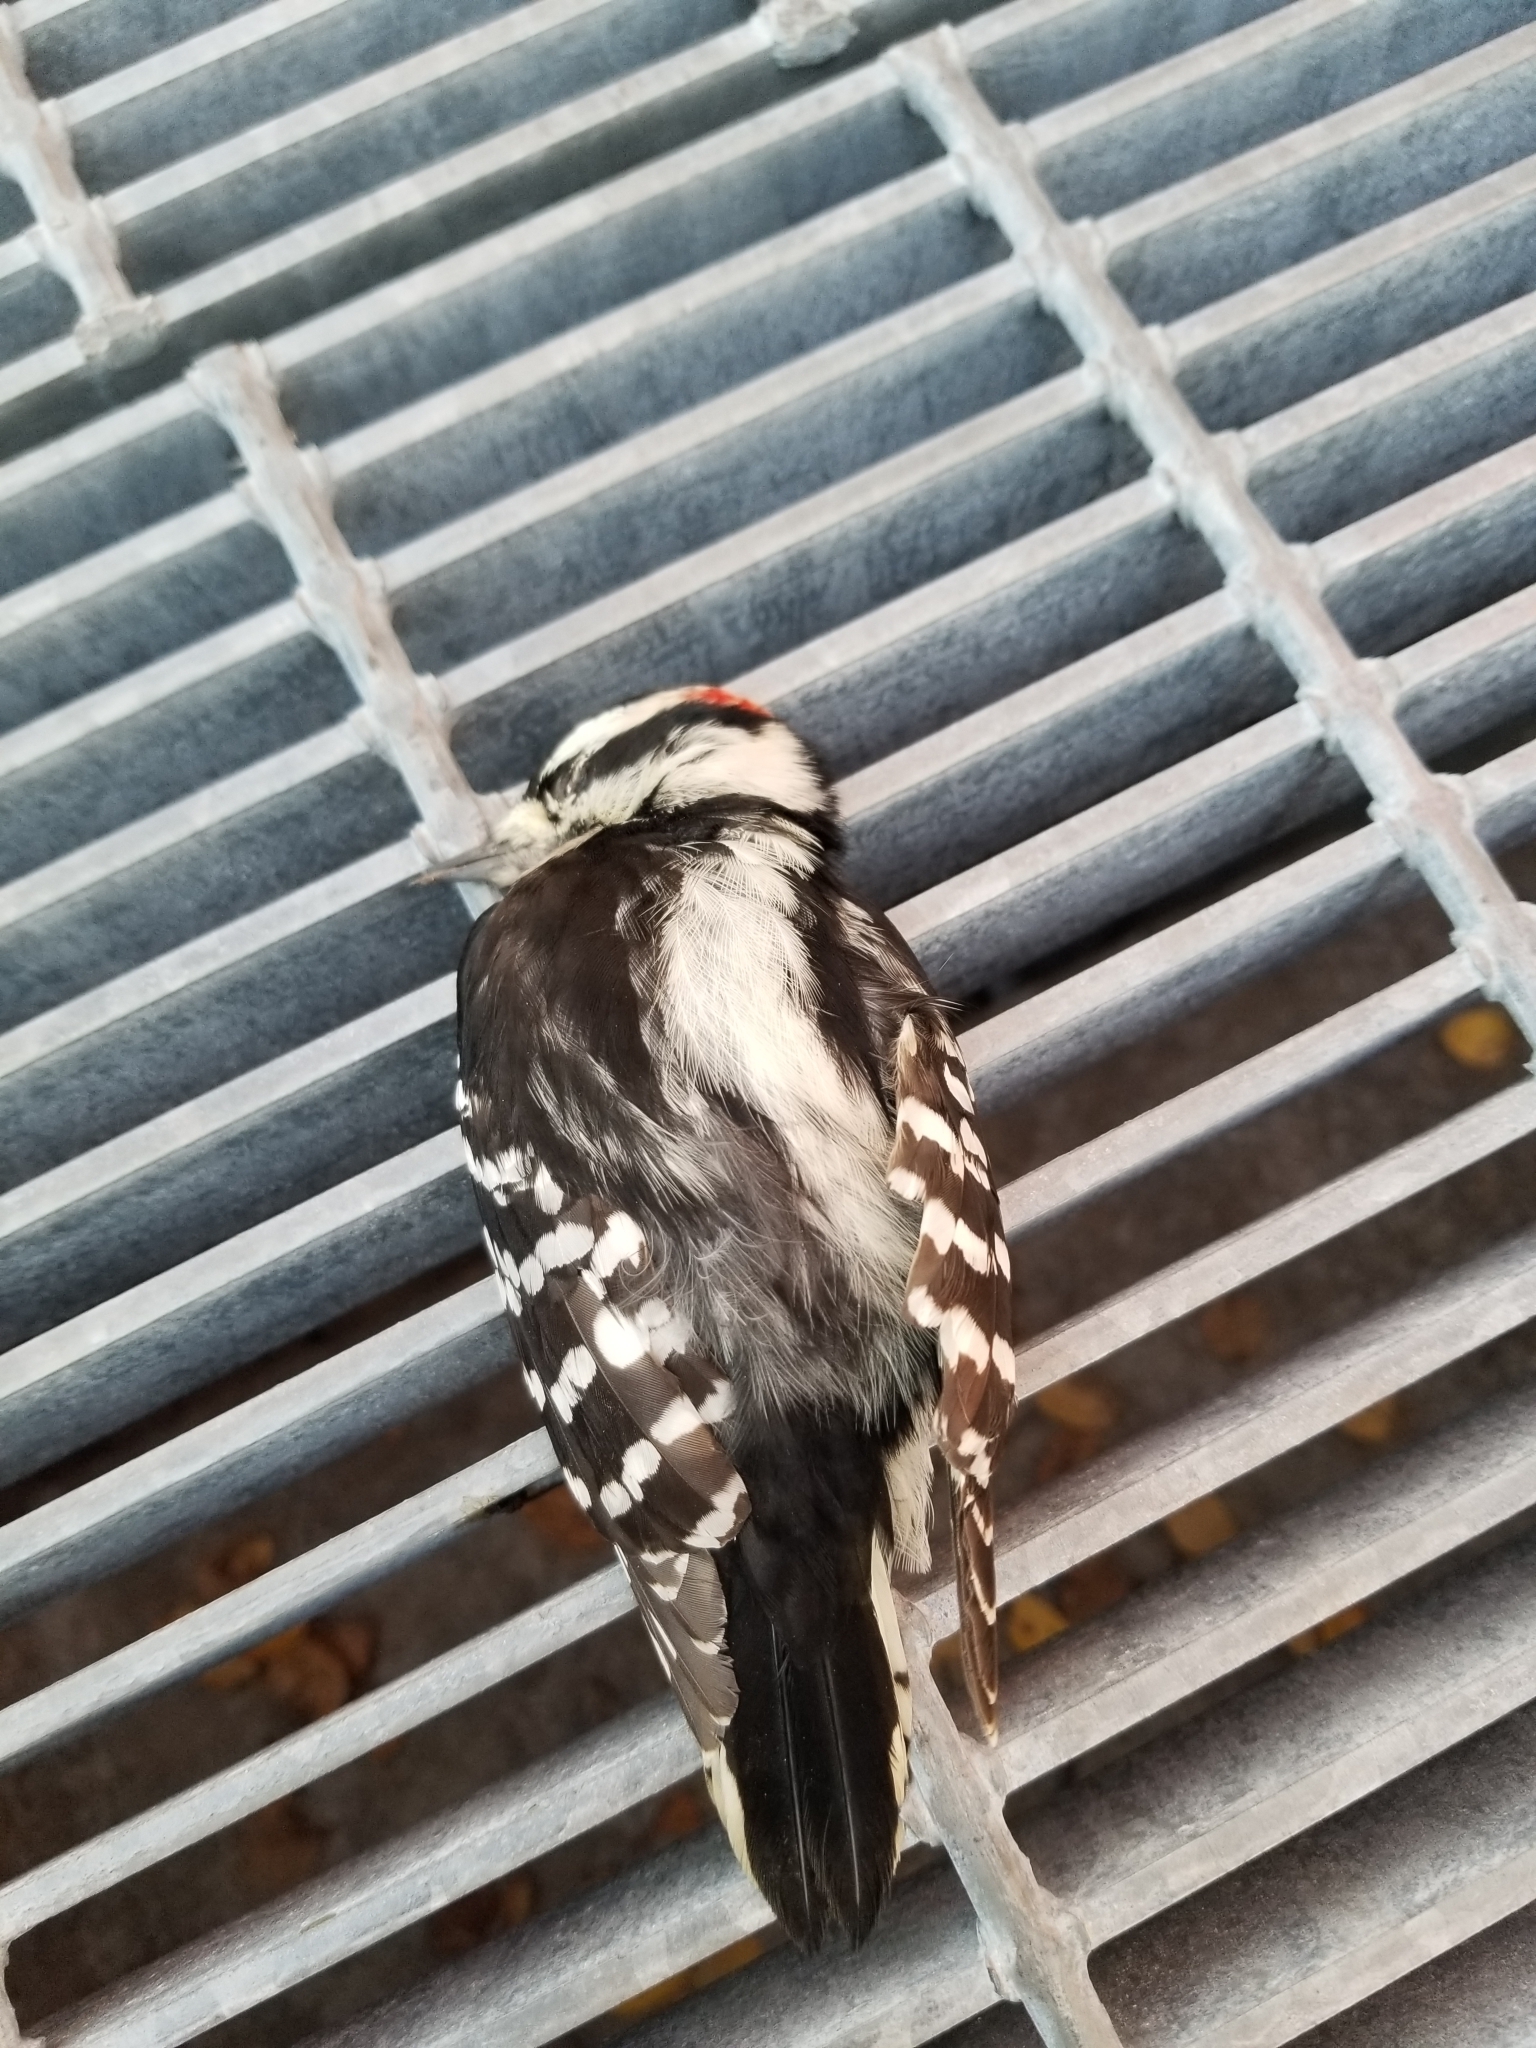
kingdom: Animalia
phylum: Chordata
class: Aves
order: Piciformes
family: Picidae
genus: Dryobates
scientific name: Dryobates pubescens
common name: Downy woodpecker
